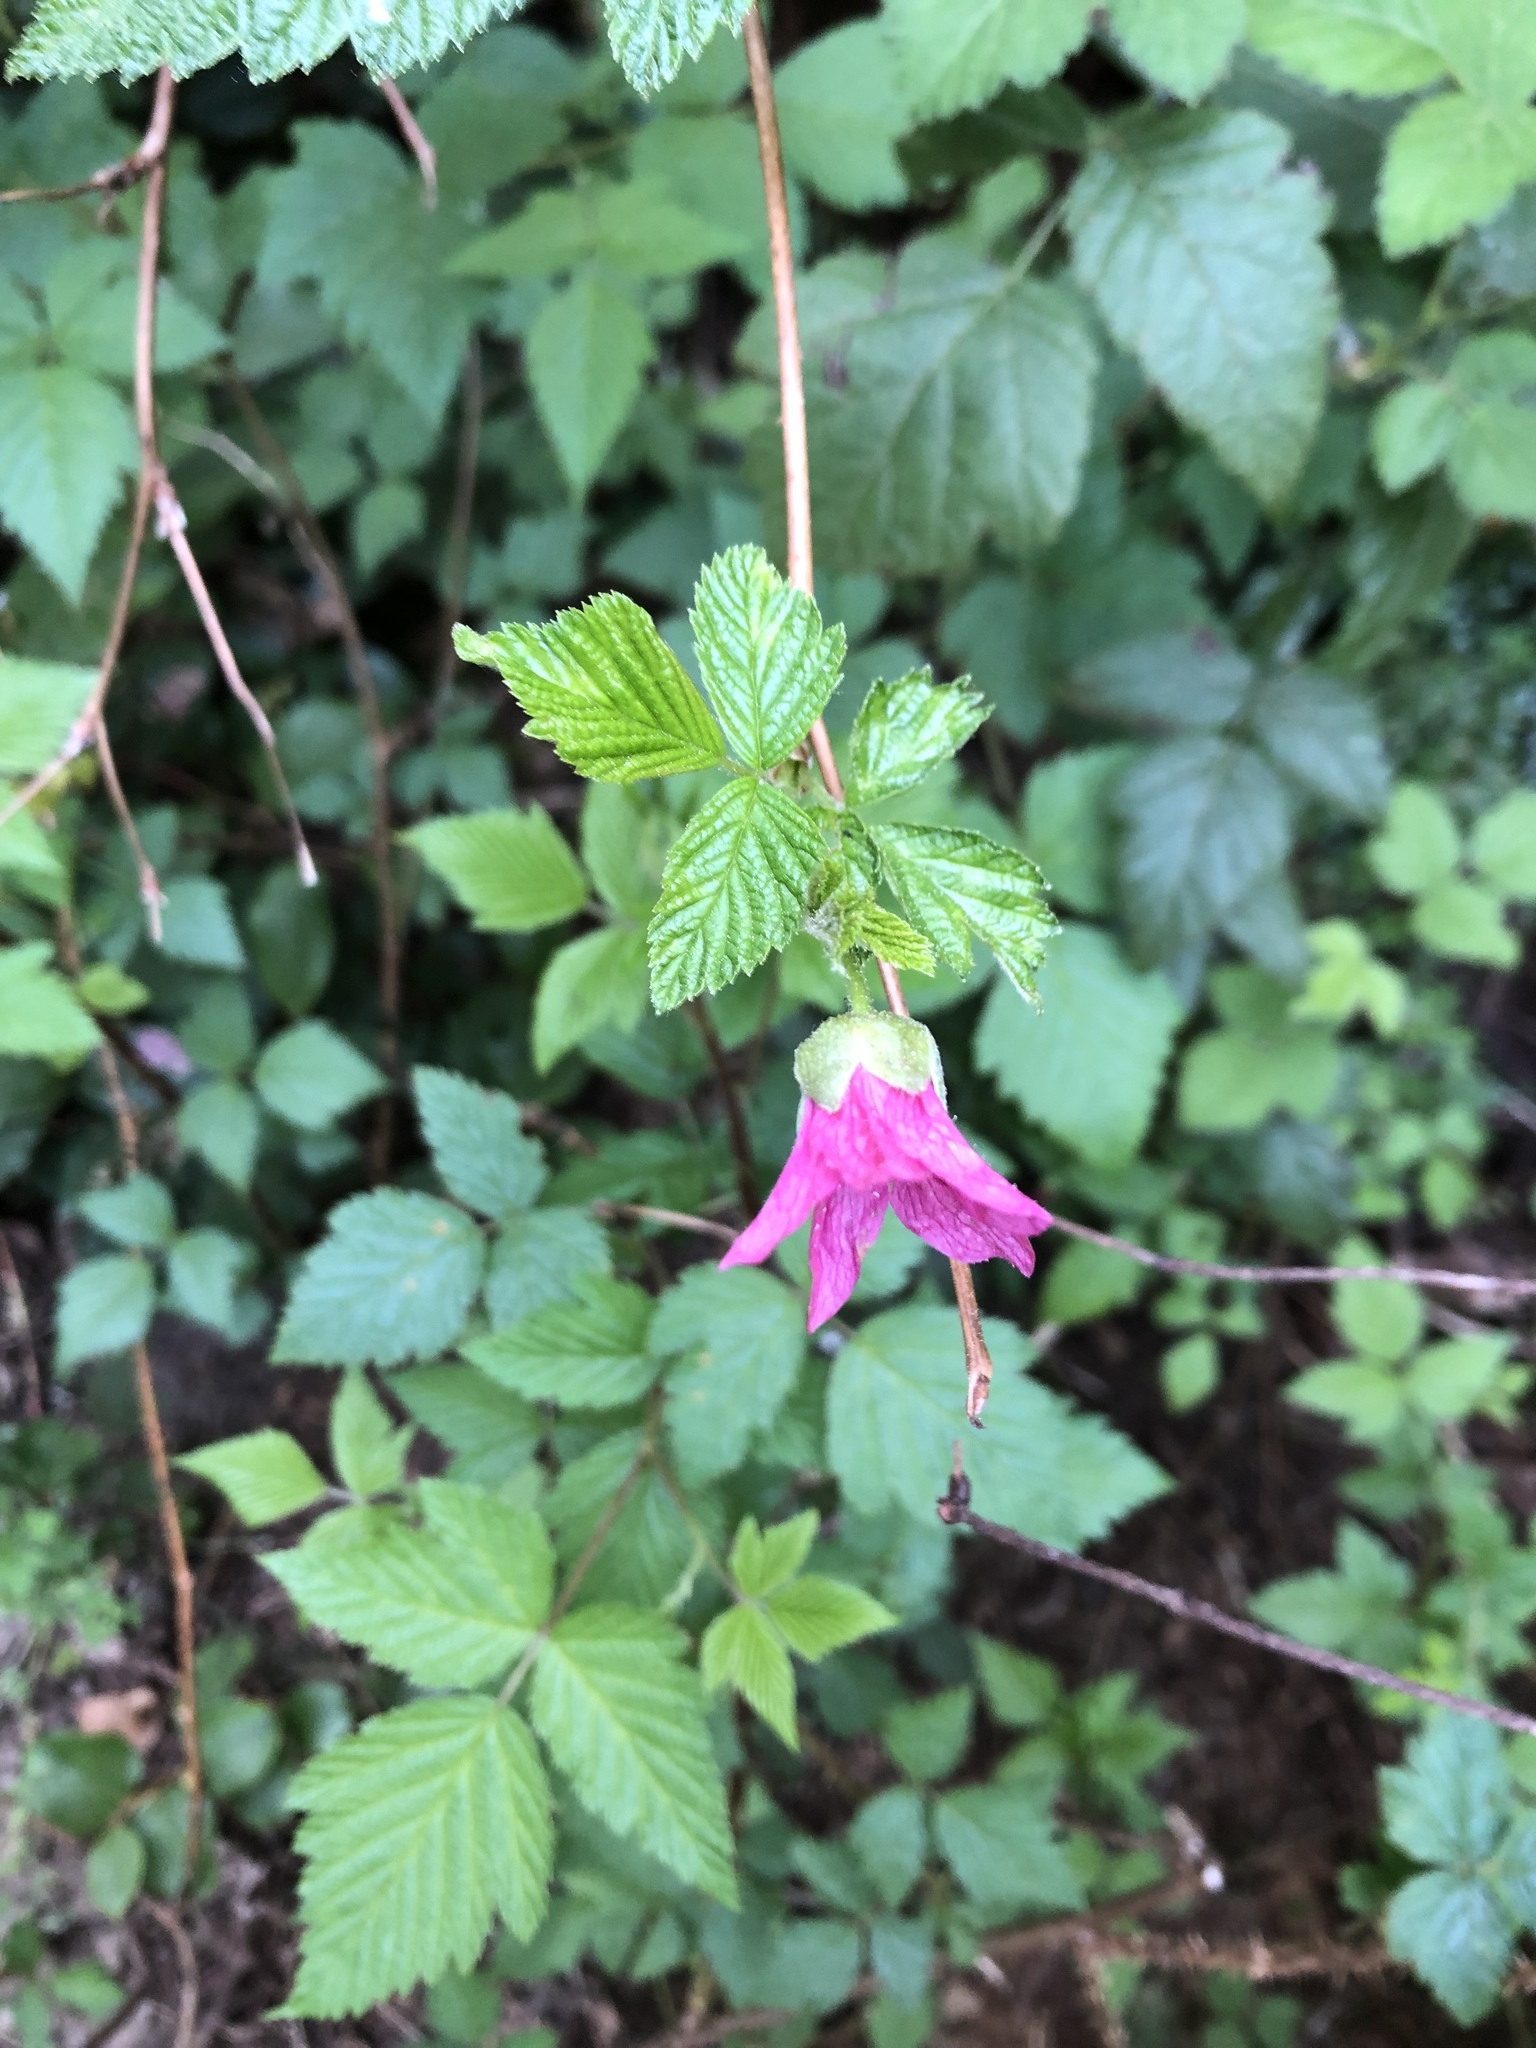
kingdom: Plantae
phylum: Tracheophyta
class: Magnoliopsida
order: Rosales
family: Rosaceae
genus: Rubus
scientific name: Rubus spectabilis
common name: Salmonberry
